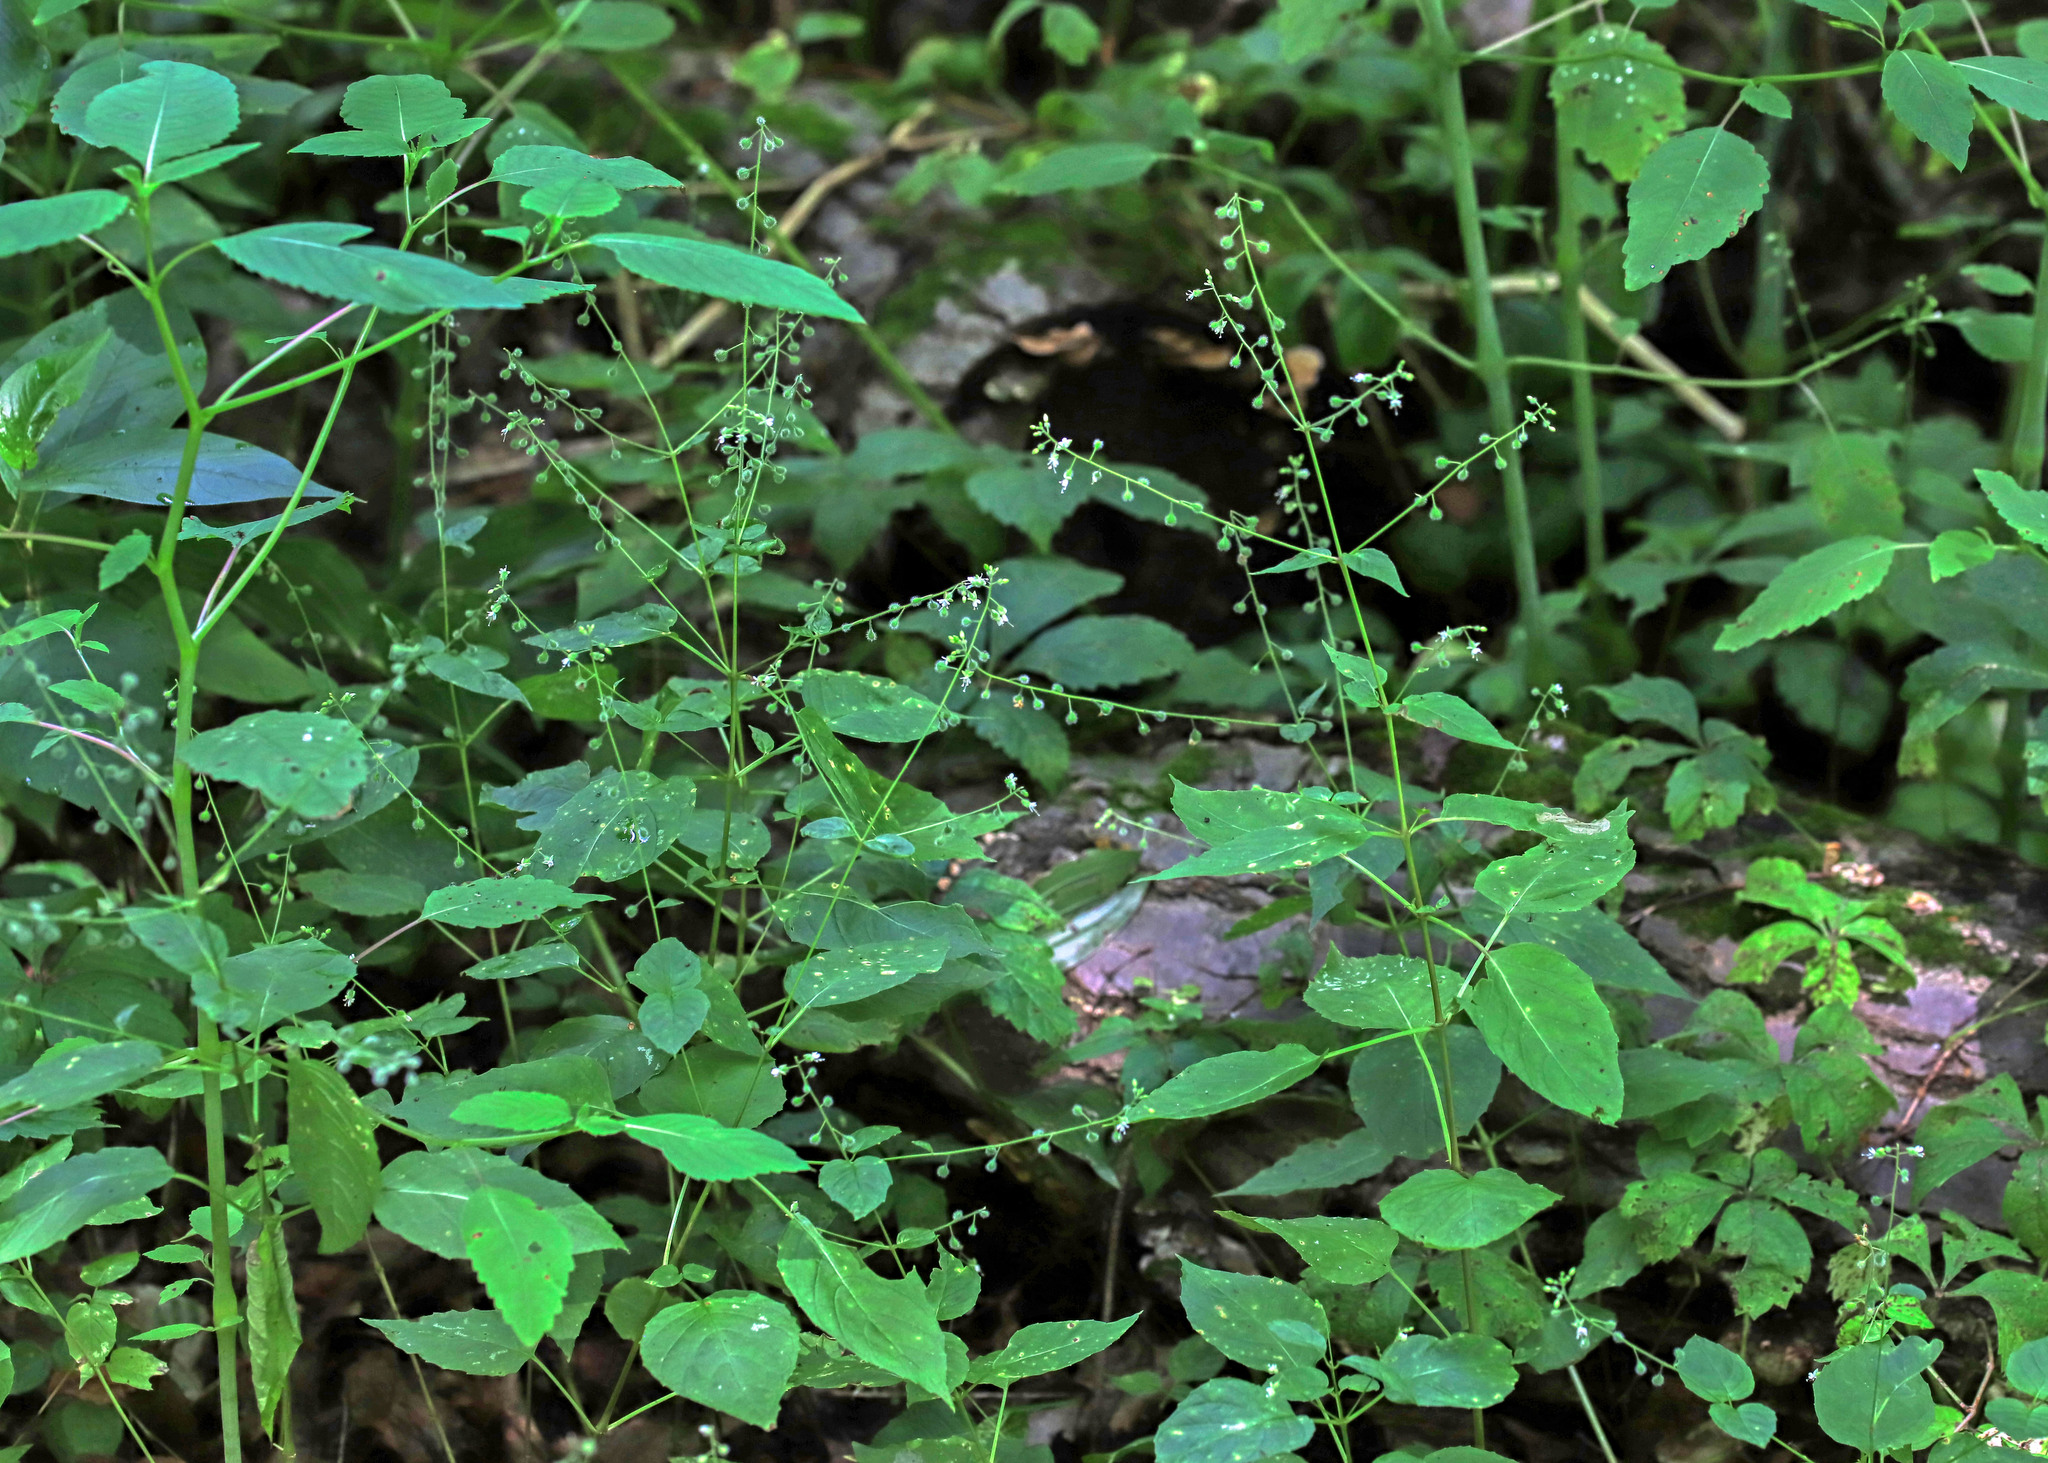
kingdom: Plantae
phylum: Tracheophyta
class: Magnoliopsida
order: Myrtales
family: Onagraceae
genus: Circaea
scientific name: Circaea canadensis
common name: Broad-leaved enchanter's nightshade
